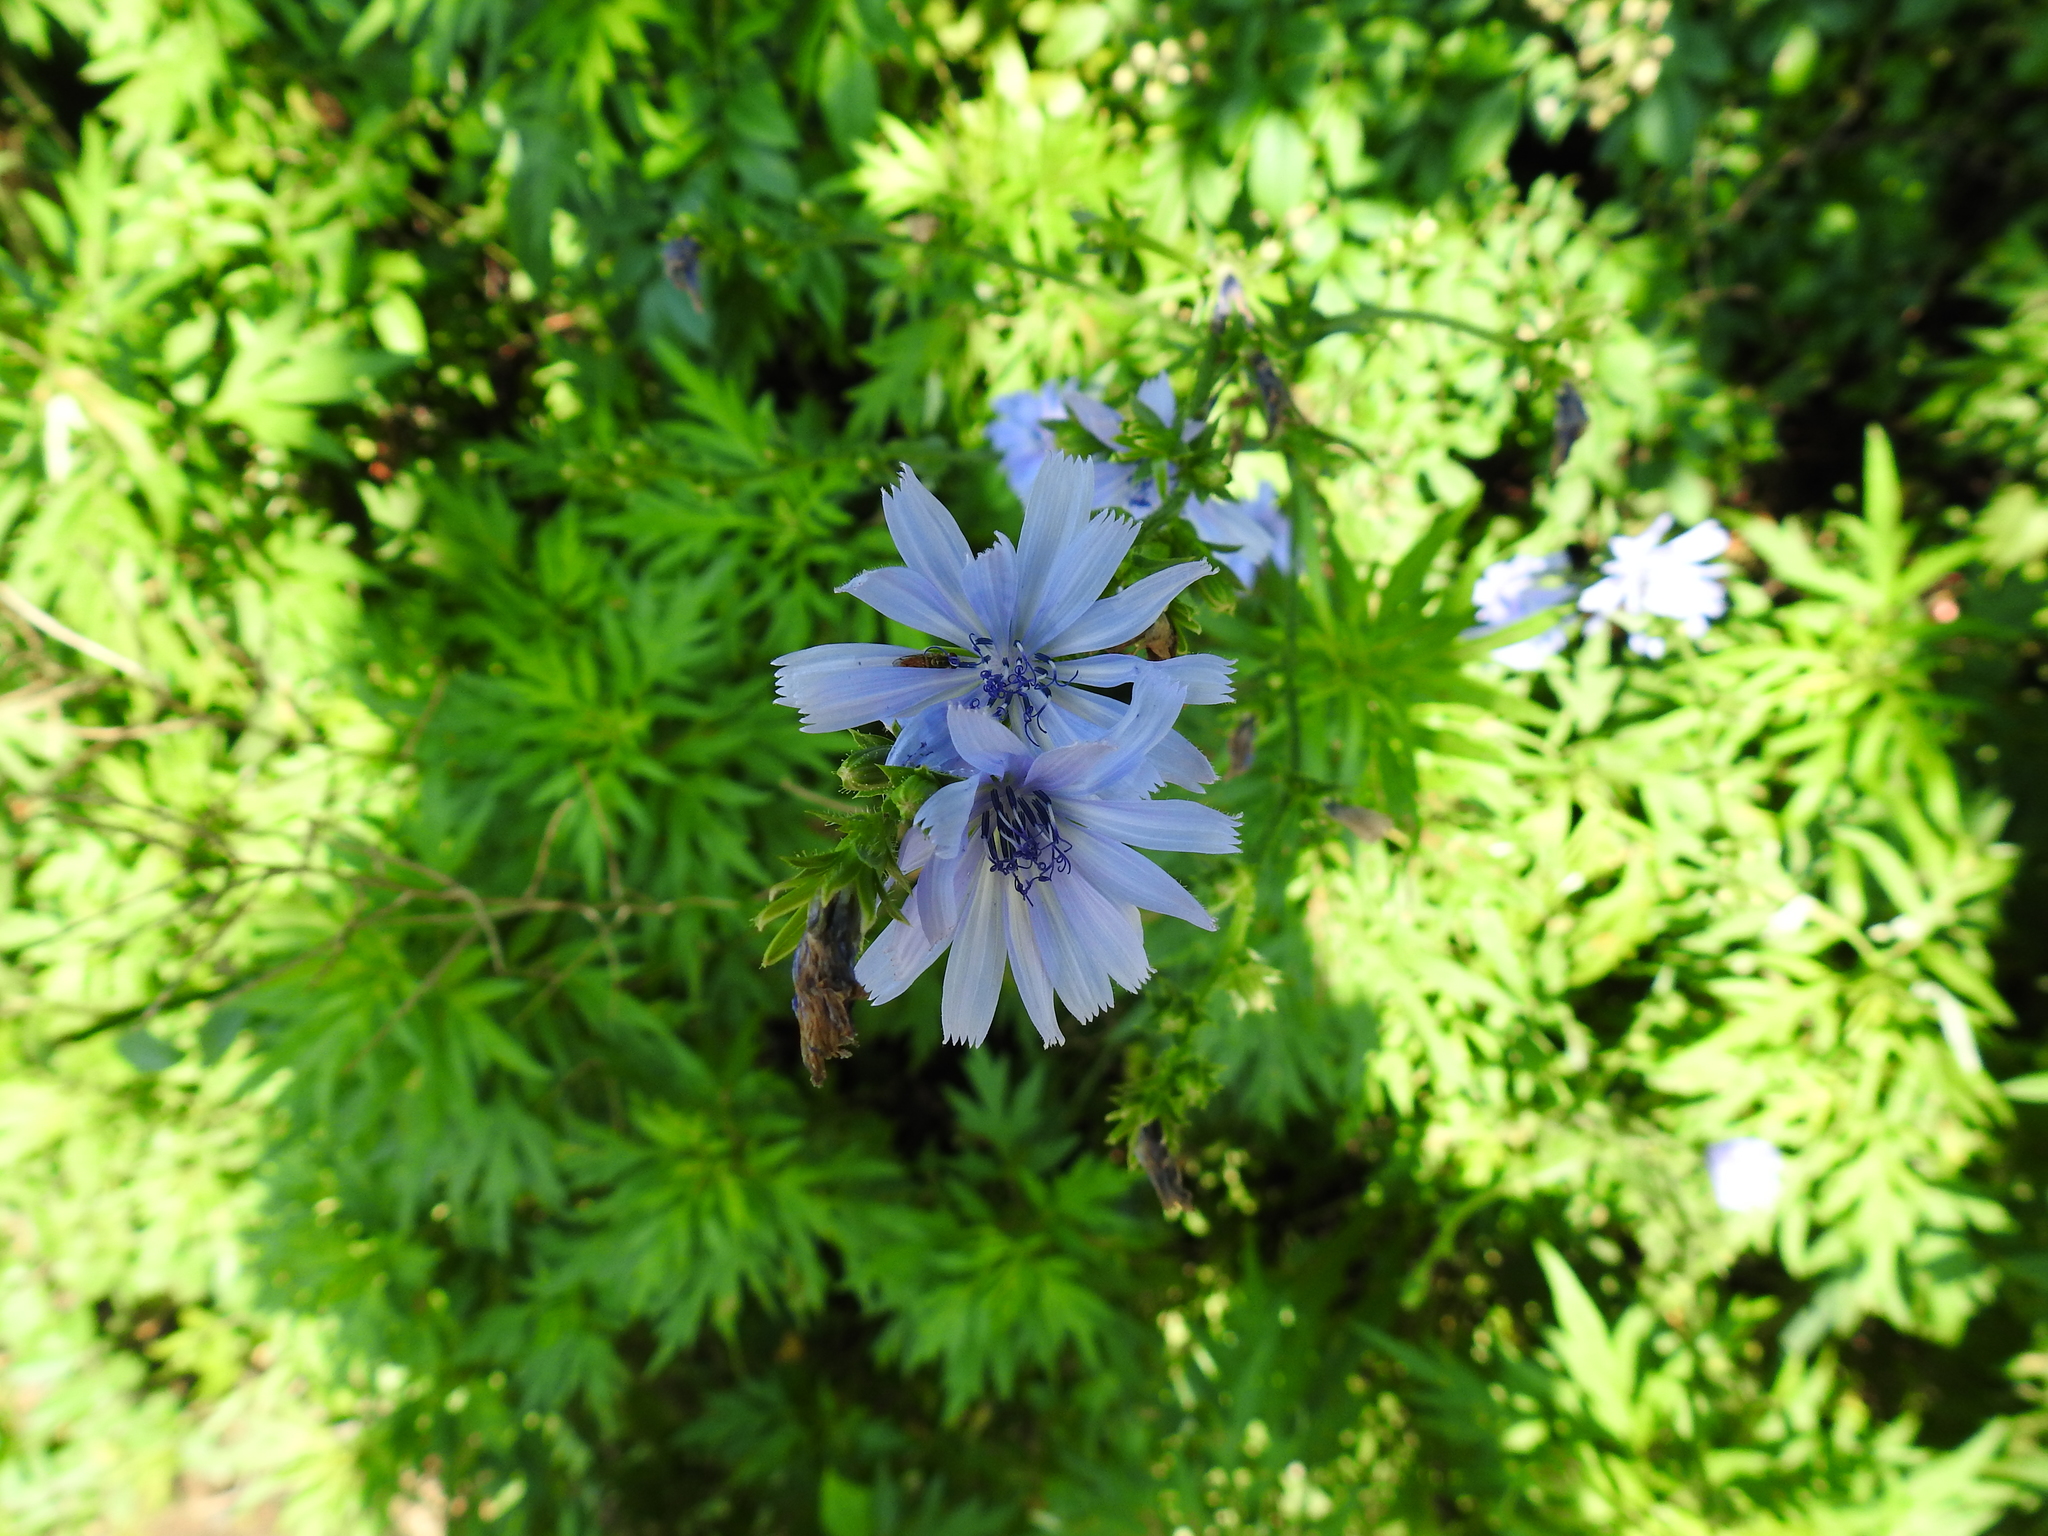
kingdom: Plantae
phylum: Tracheophyta
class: Magnoliopsida
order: Asterales
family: Asteraceae
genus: Cichorium
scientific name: Cichorium intybus
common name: Chicory
